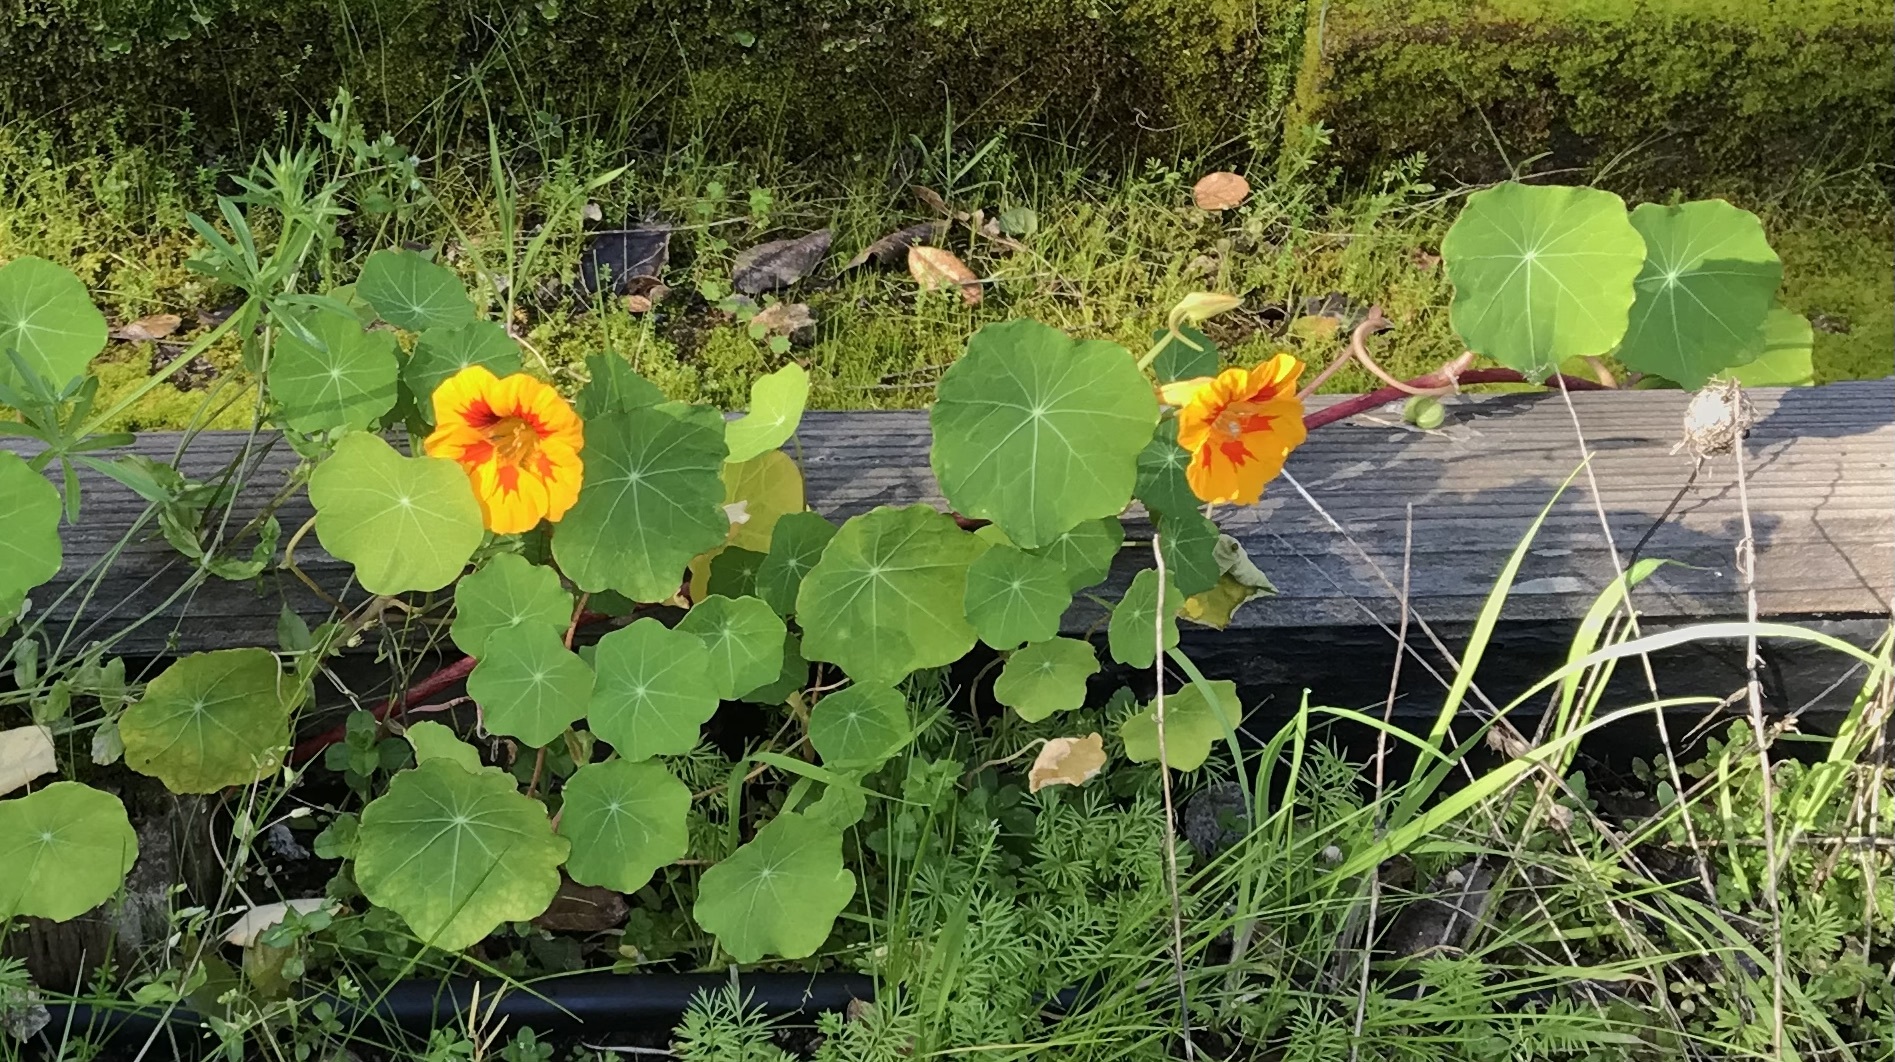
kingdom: Plantae
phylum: Tracheophyta
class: Magnoliopsida
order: Brassicales
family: Tropaeolaceae
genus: Tropaeolum
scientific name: Tropaeolum majus
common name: Nasturtium
